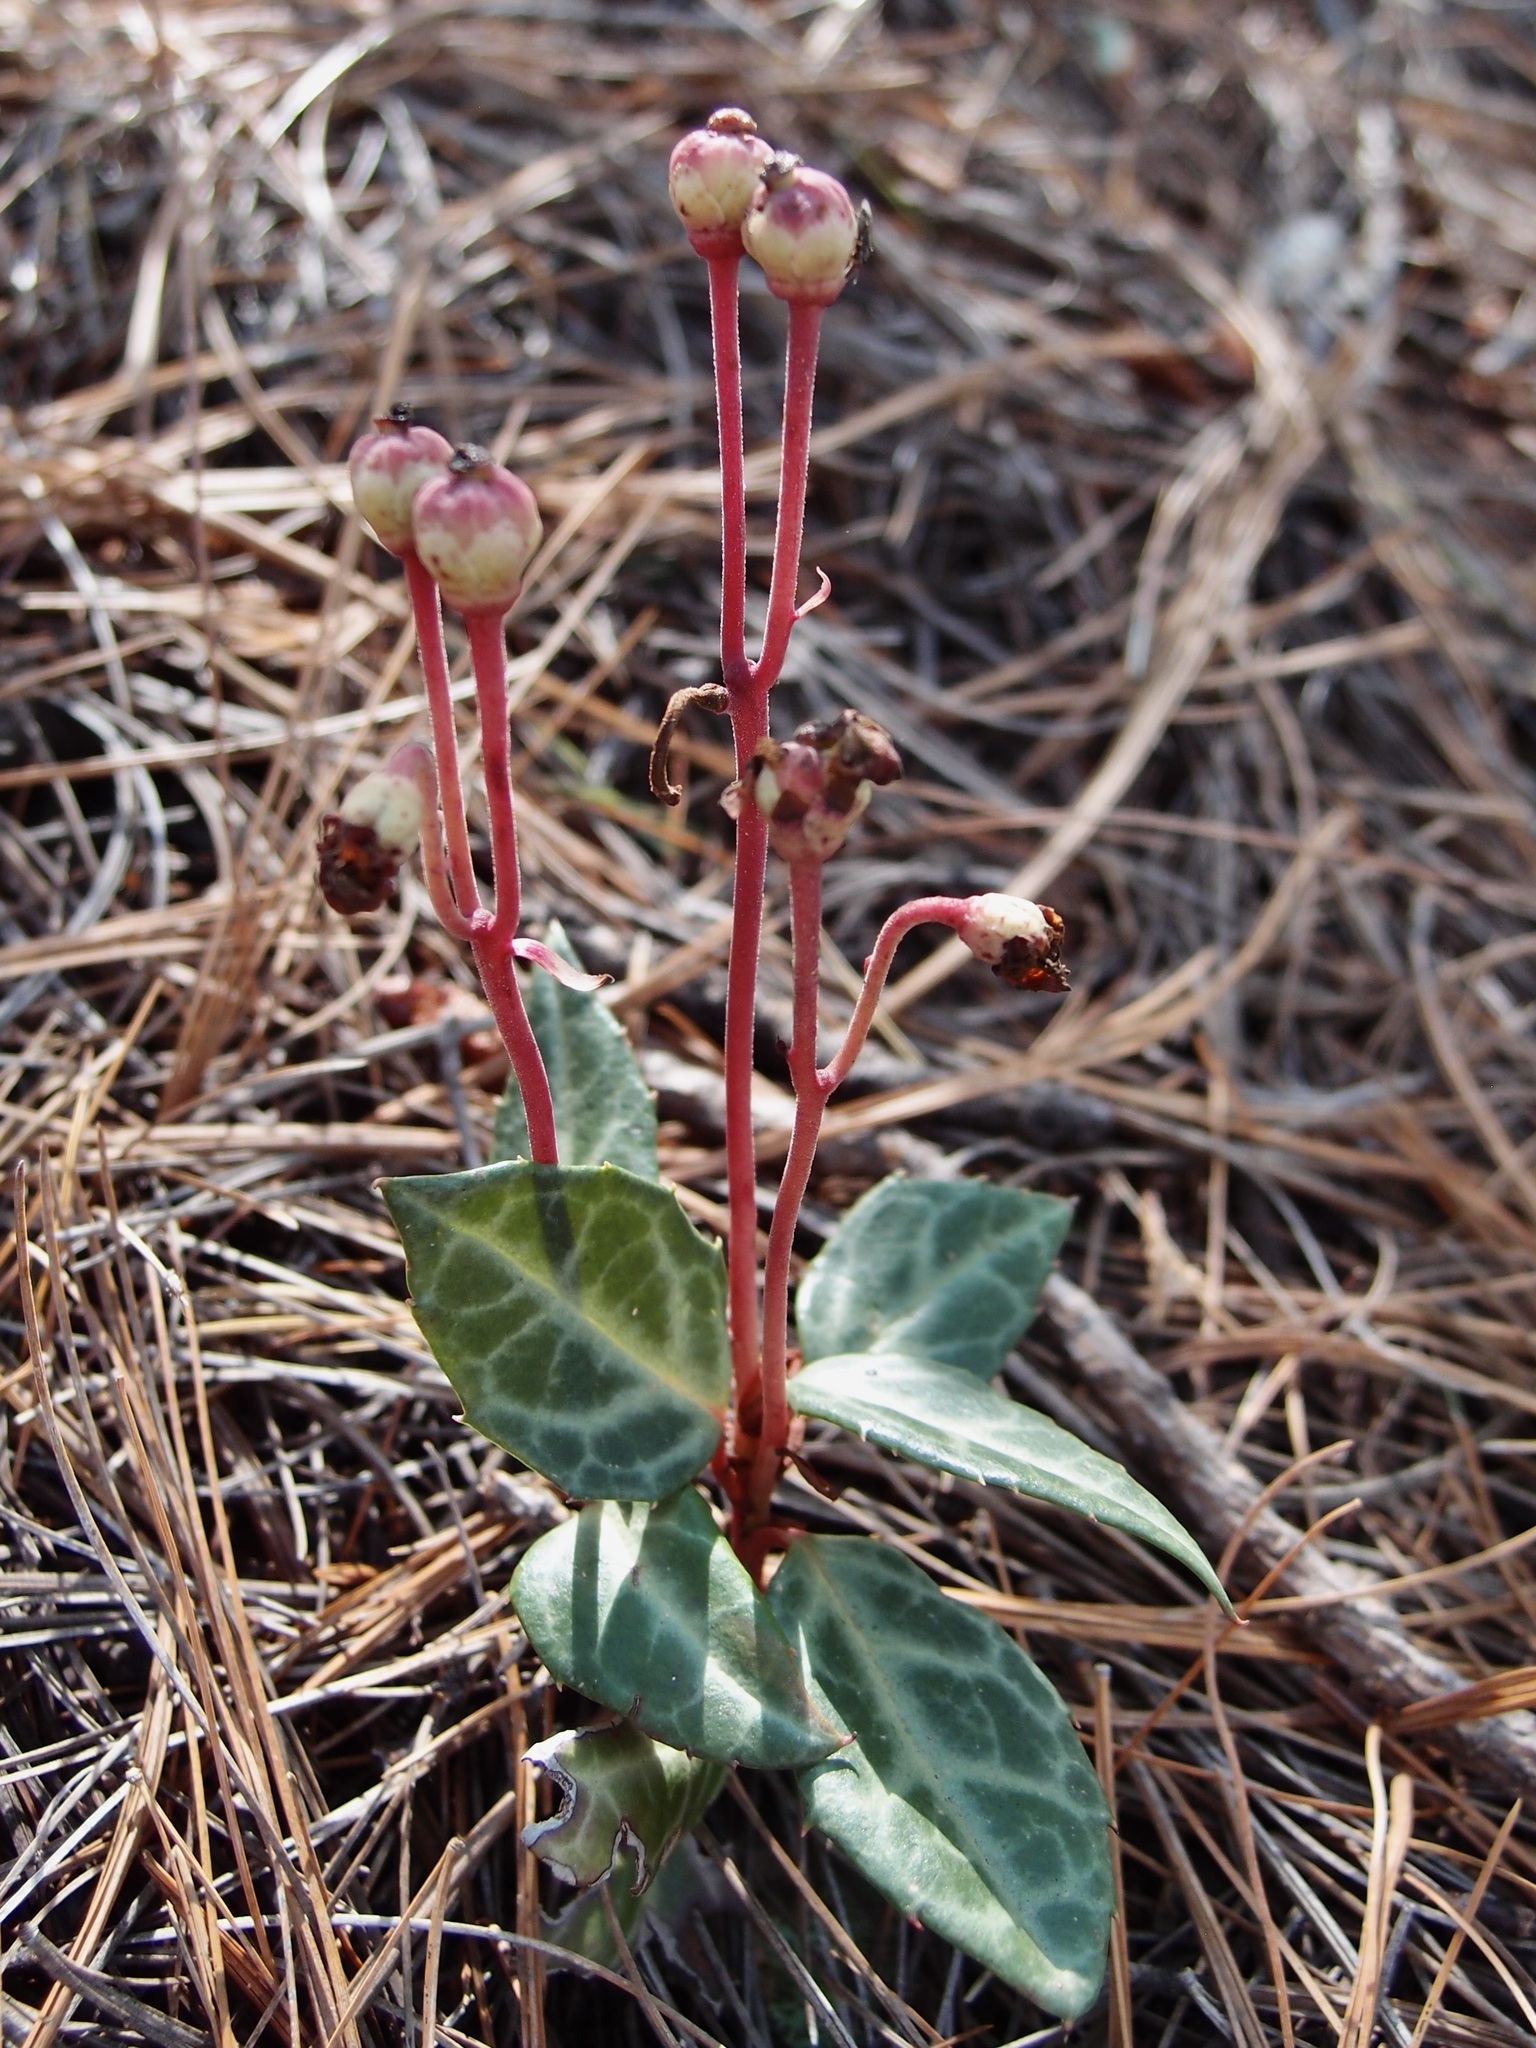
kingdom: Plantae
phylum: Tracheophyta
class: Magnoliopsida
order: Ericales
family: Ericaceae
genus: Chimaphila
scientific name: Chimaphila maculata
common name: Spotted pipsissewa
